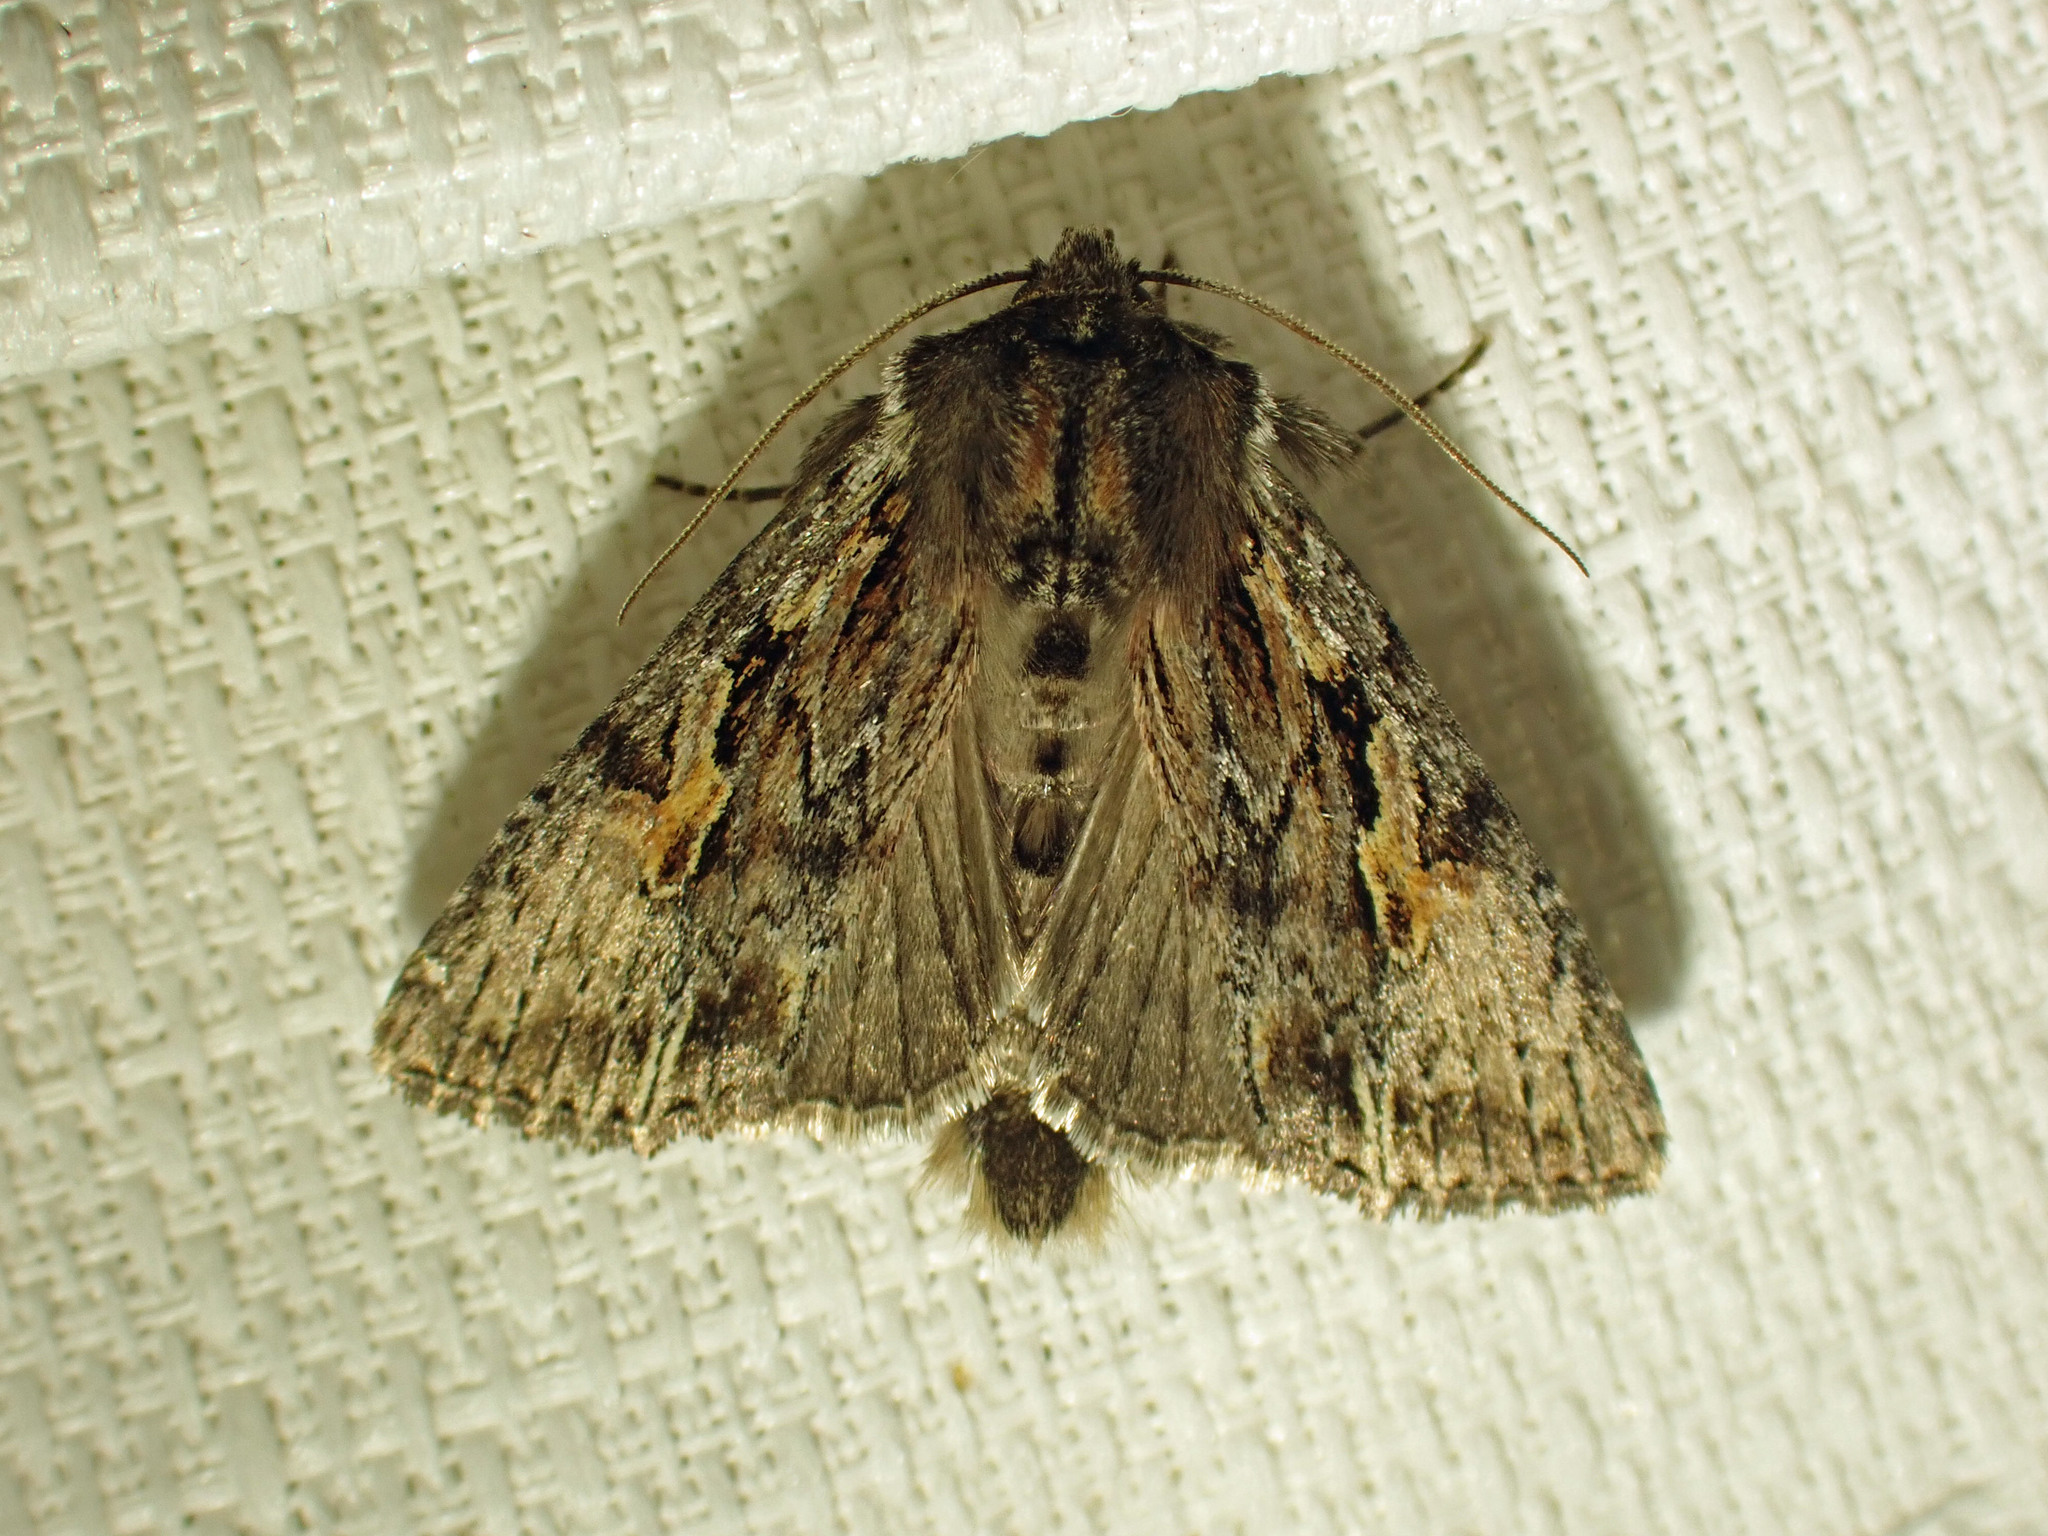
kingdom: Animalia
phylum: Arthropoda
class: Insecta
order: Lepidoptera
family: Noctuidae
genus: Achatia
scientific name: Achatia evicta
